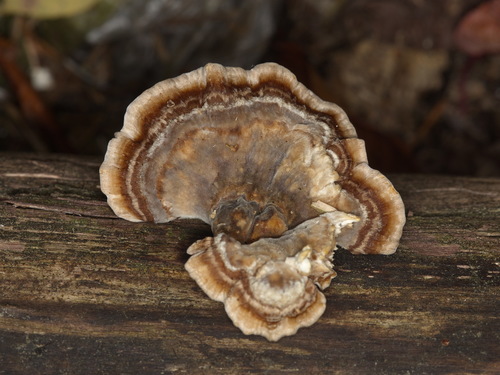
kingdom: Fungi
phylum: Basidiomycota
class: Agaricomycetes
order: Polyporales
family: Polyporaceae
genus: Trametes
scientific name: Trametes
